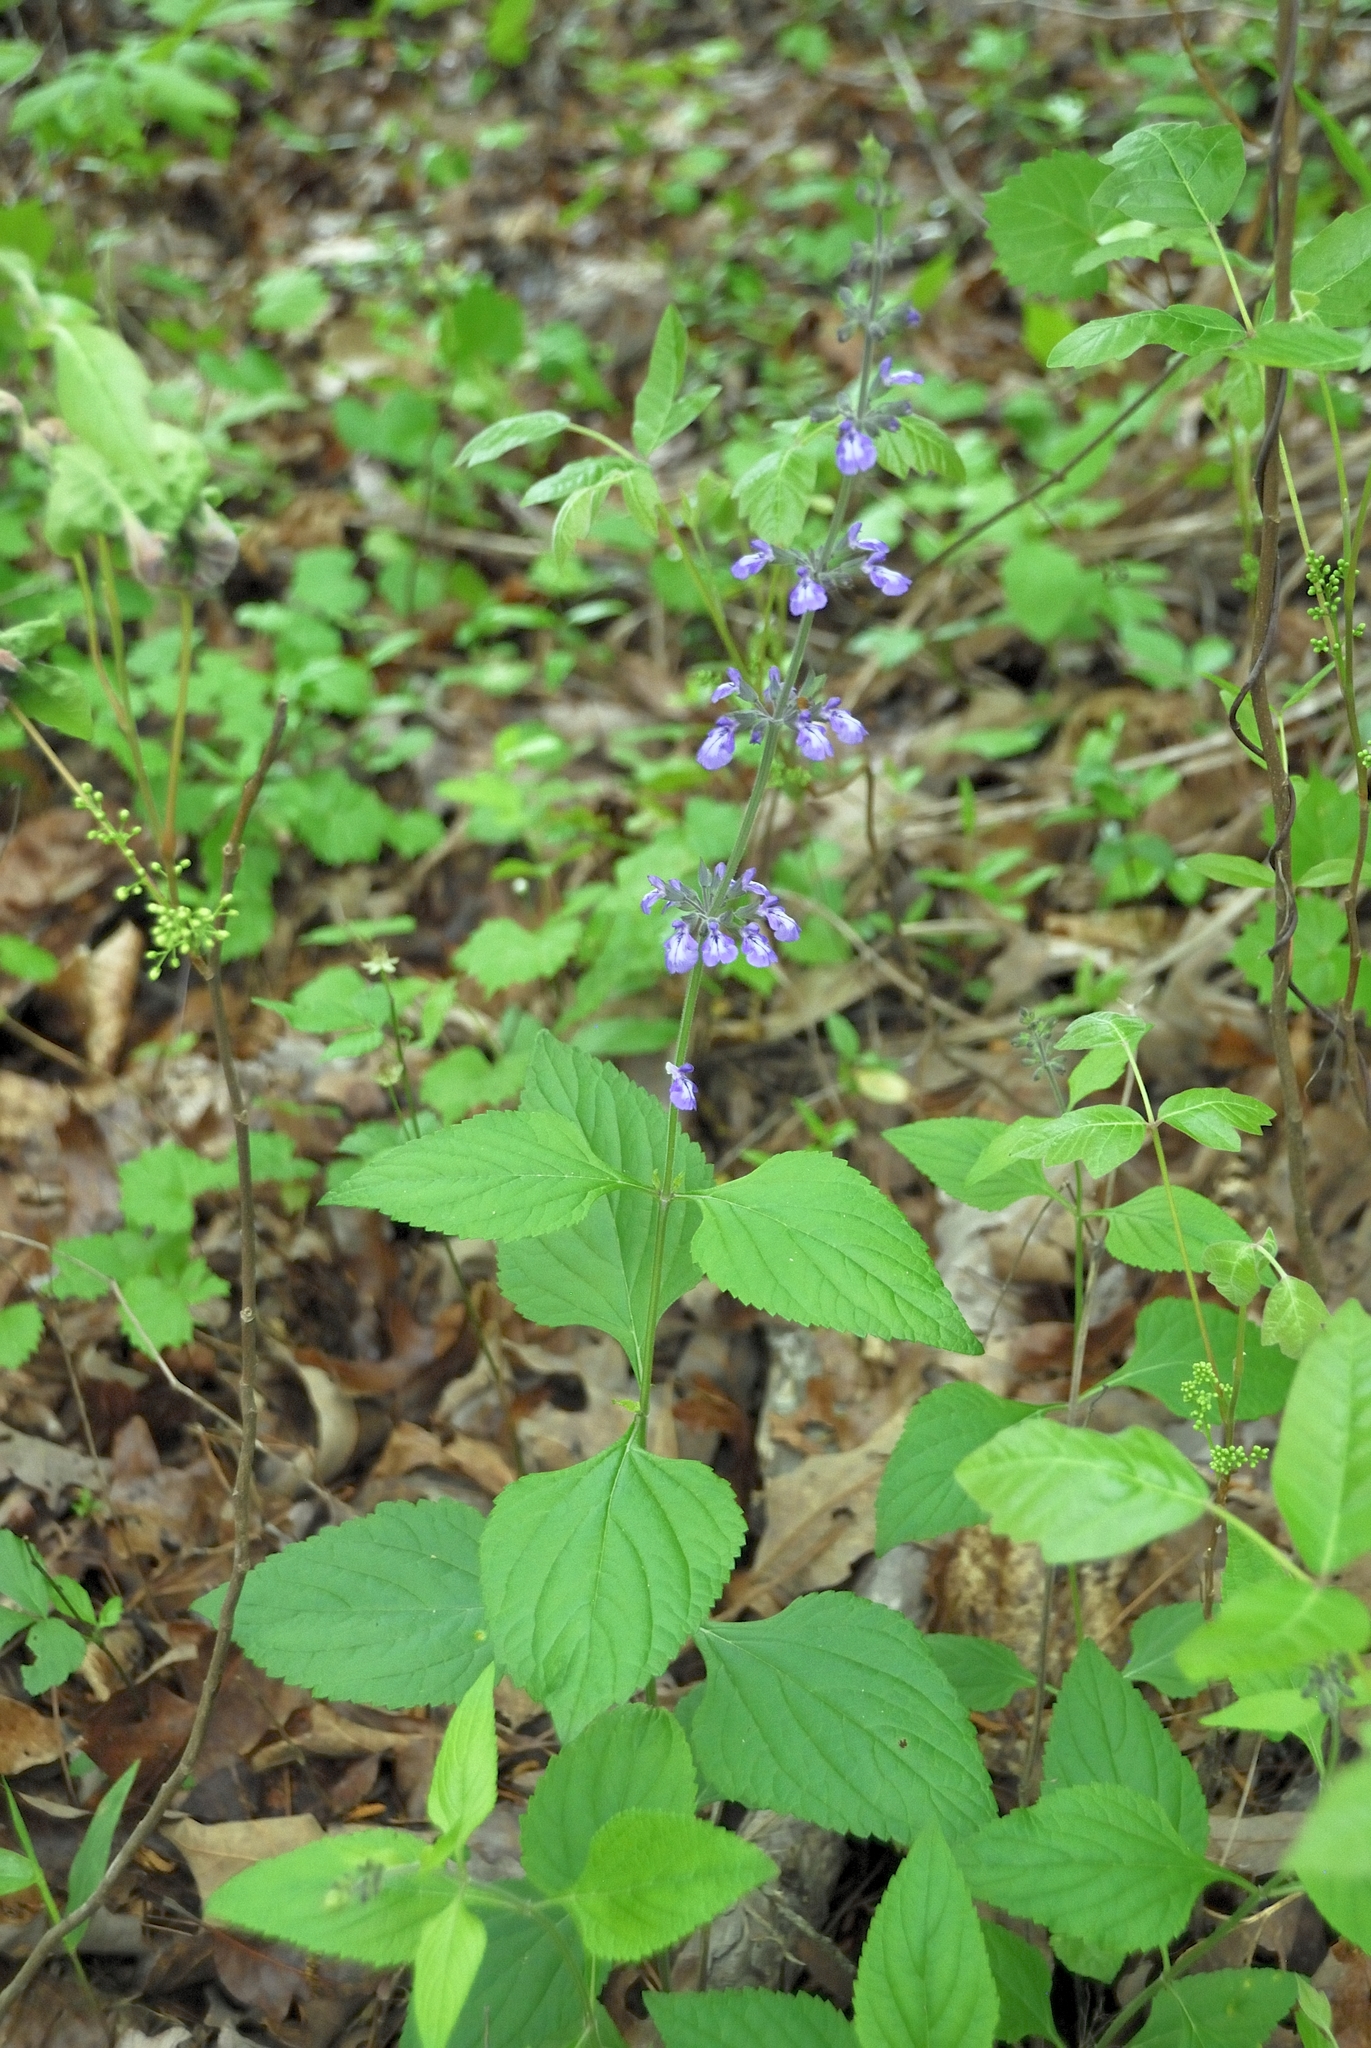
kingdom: Plantae
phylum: Tracheophyta
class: Magnoliopsida
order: Lamiales
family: Lamiaceae
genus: Salvia
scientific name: Salvia urticifolia
